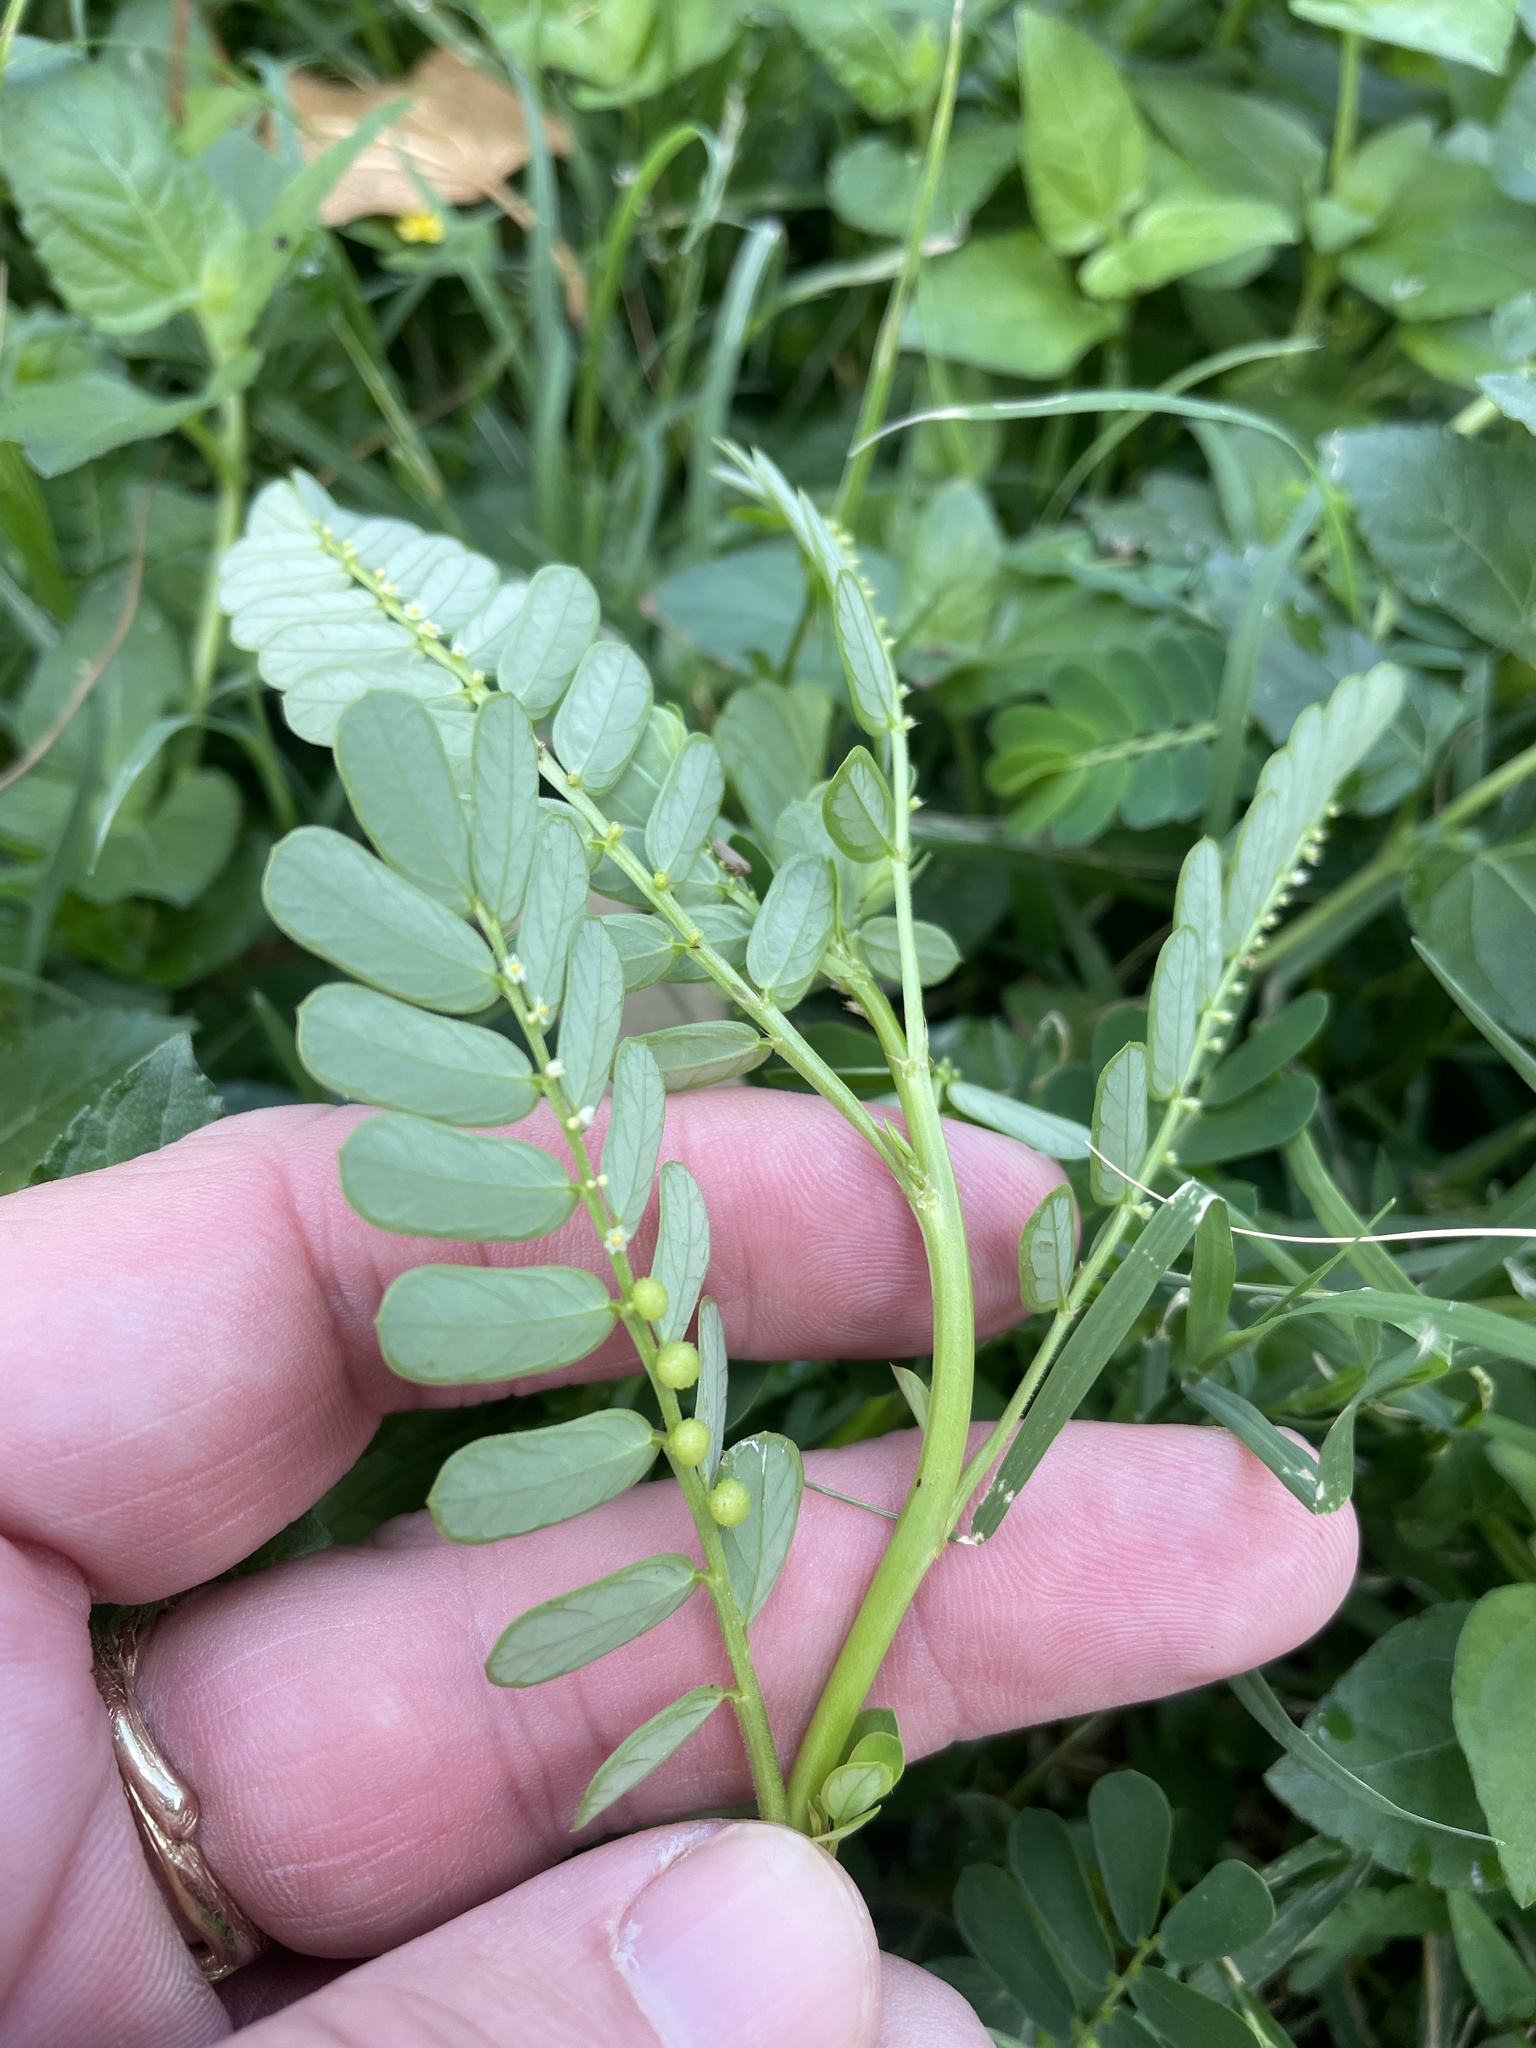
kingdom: Plantae
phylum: Tracheophyta
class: Magnoliopsida
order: Malpighiales
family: Phyllanthaceae
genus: Phyllanthus
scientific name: Phyllanthus urinaria
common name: Chamber bitter
